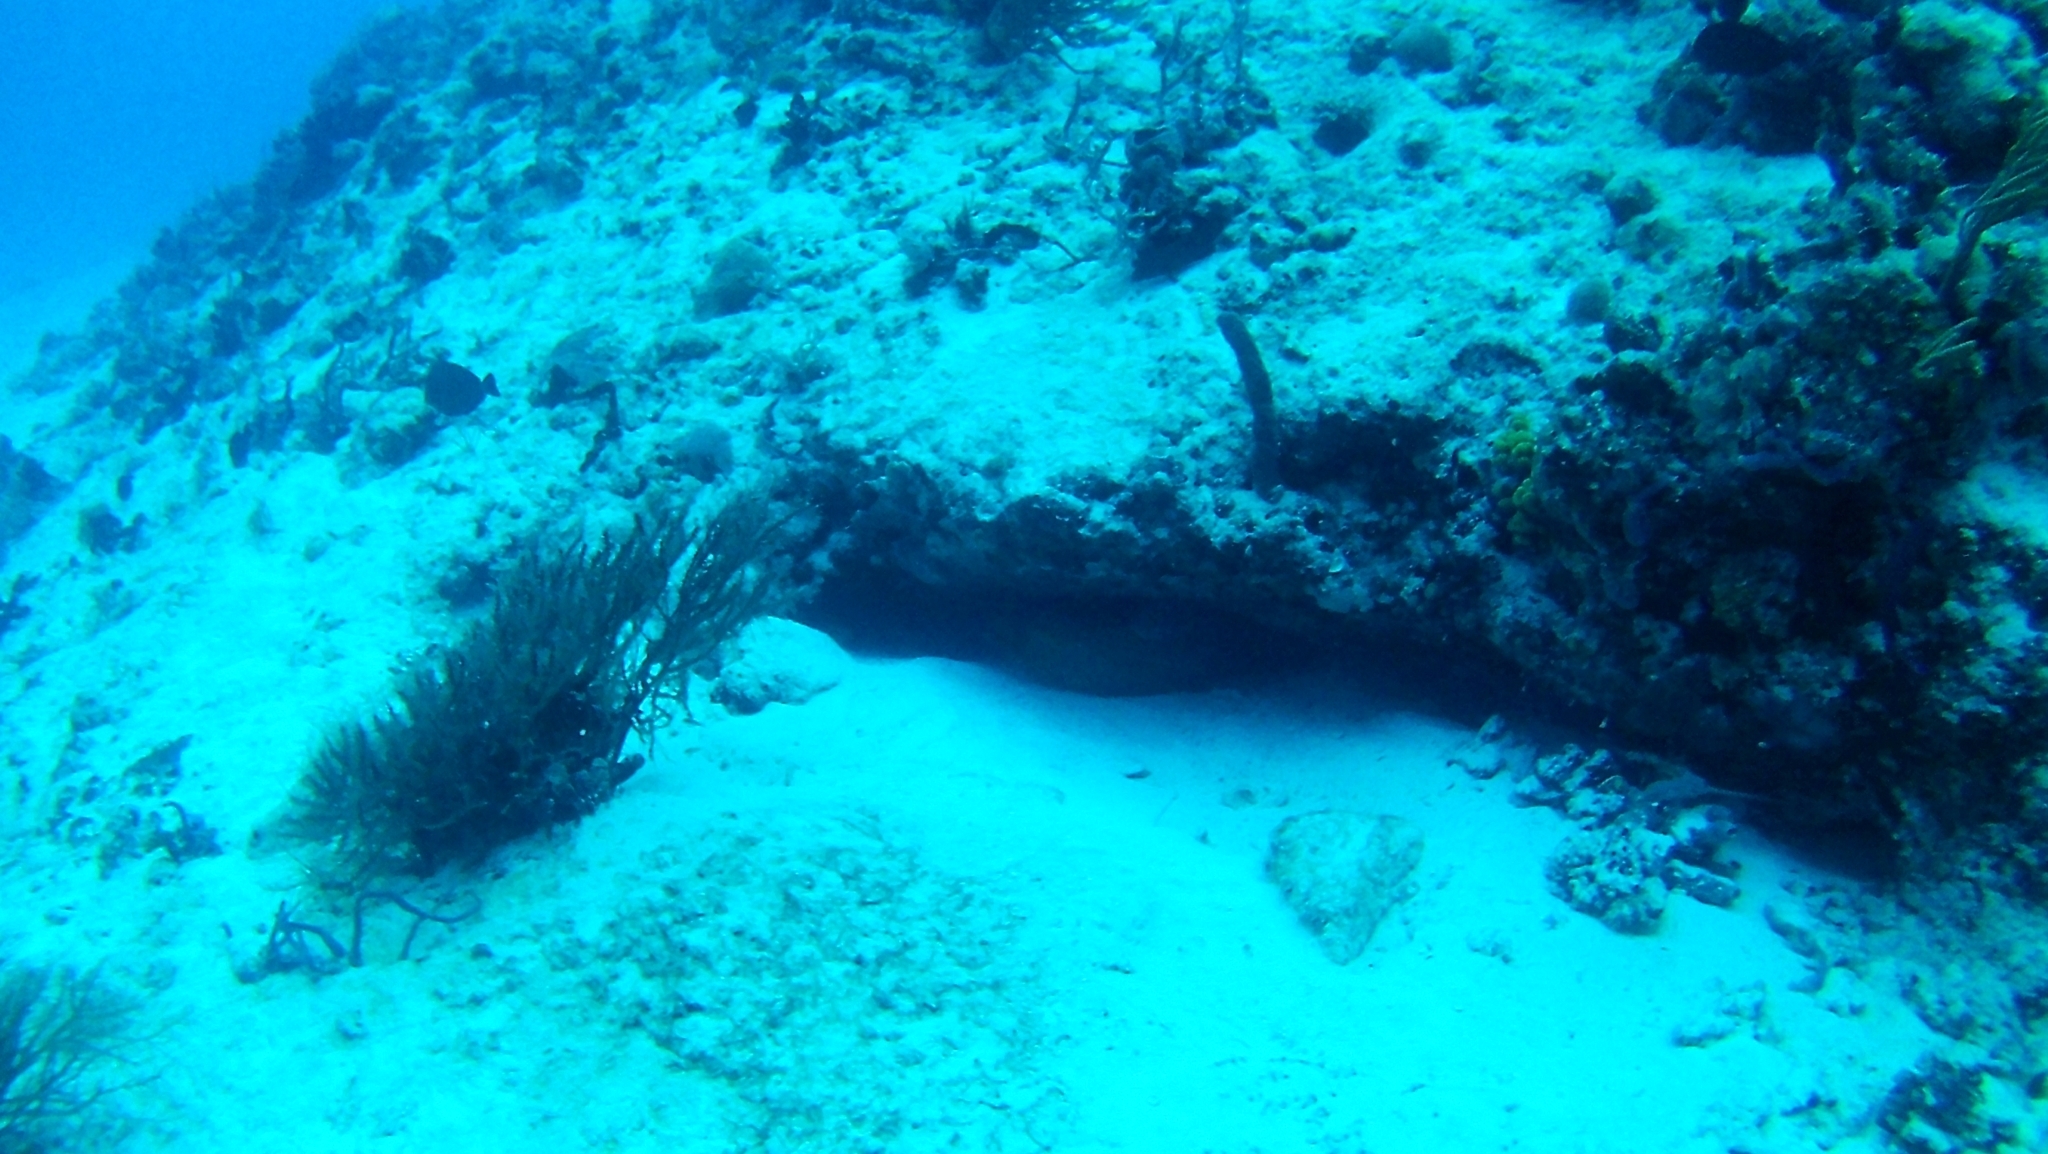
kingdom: Animalia
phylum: Chordata
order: Anguilliformes
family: Muraenidae
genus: Gymnothorax
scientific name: Gymnothorax funebris
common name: Green moray
